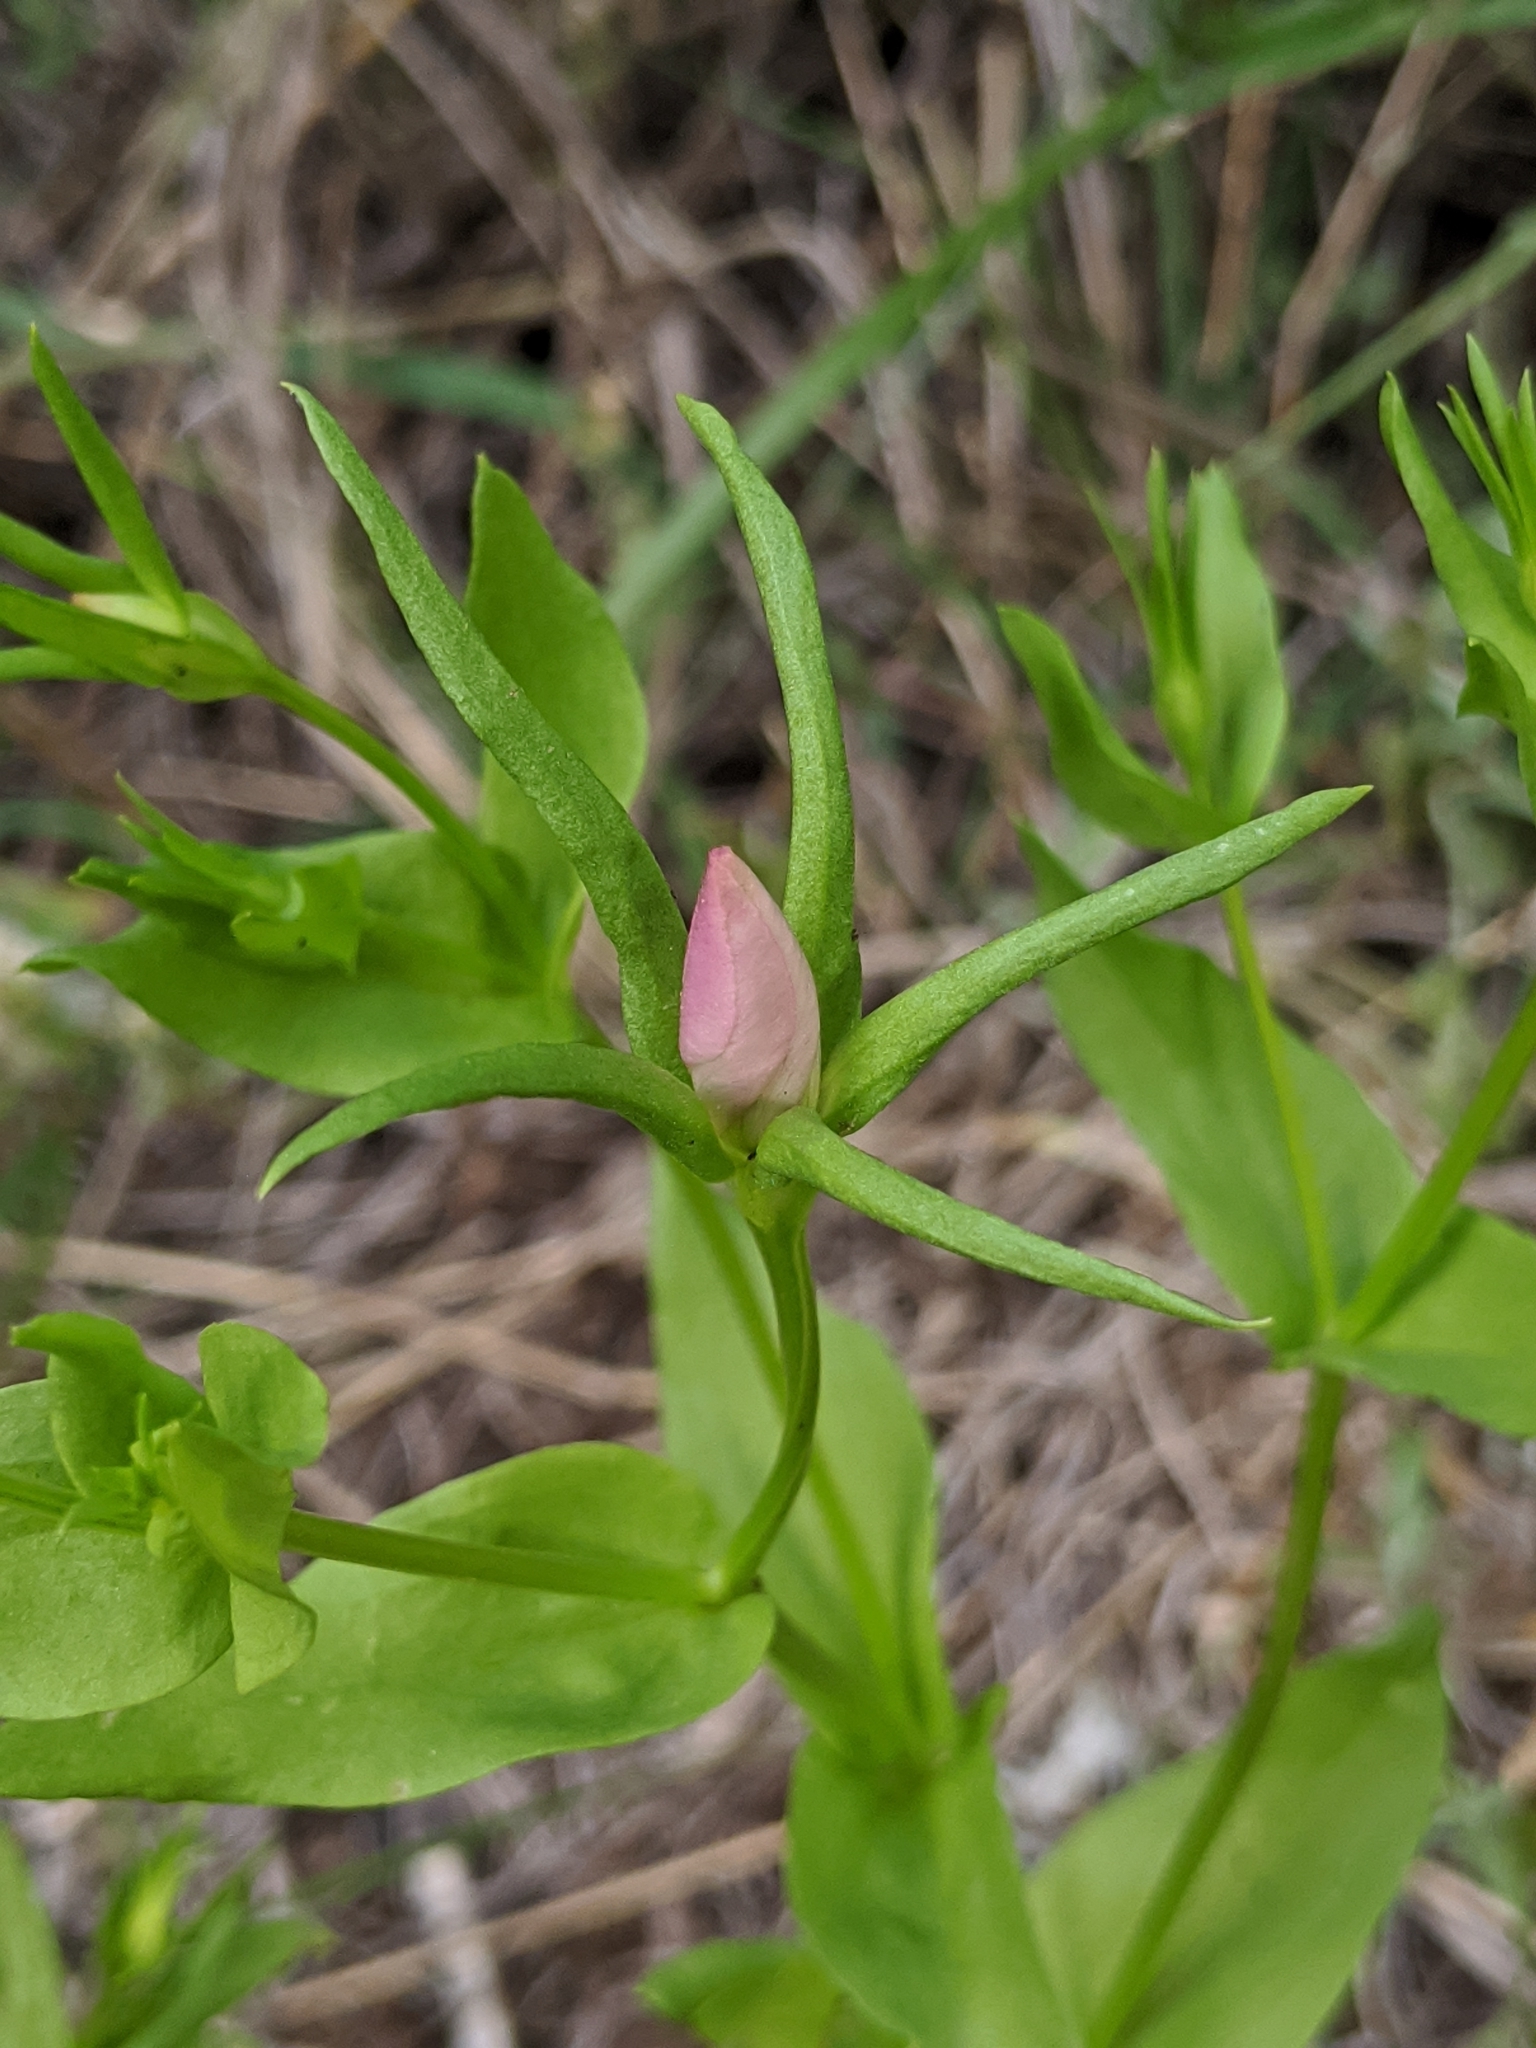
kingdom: Plantae
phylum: Tracheophyta
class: Magnoliopsida
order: Gentianales
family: Gentianaceae
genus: Sabatia
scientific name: Sabatia campestris
